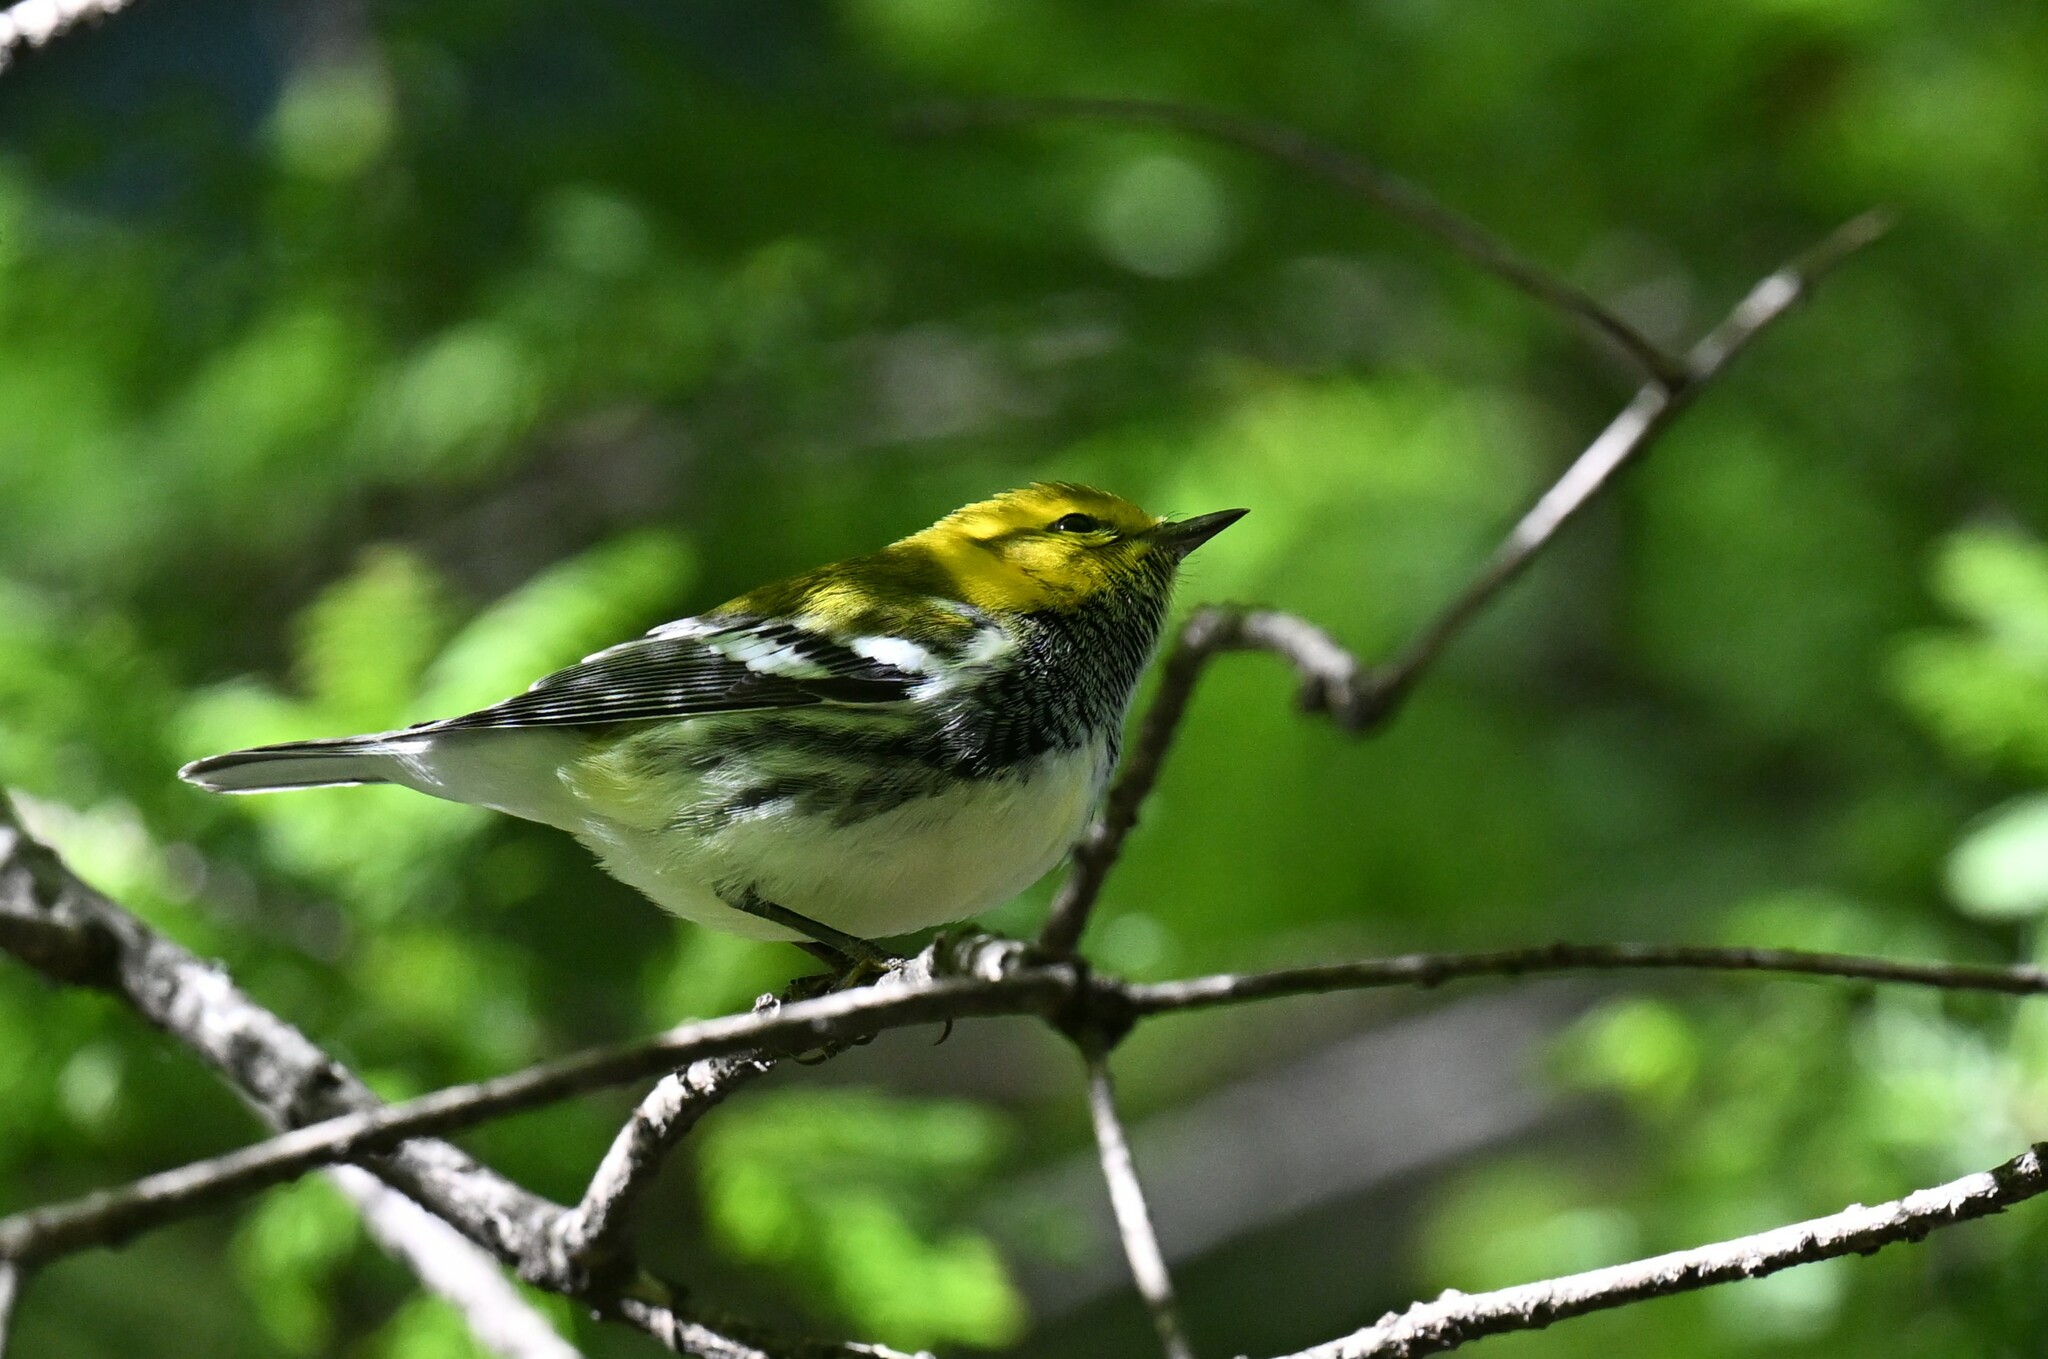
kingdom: Animalia
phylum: Chordata
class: Aves
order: Passeriformes
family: Parulidae
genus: Setophaga
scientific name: Setophaga virens
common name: Black-throated green warbler
